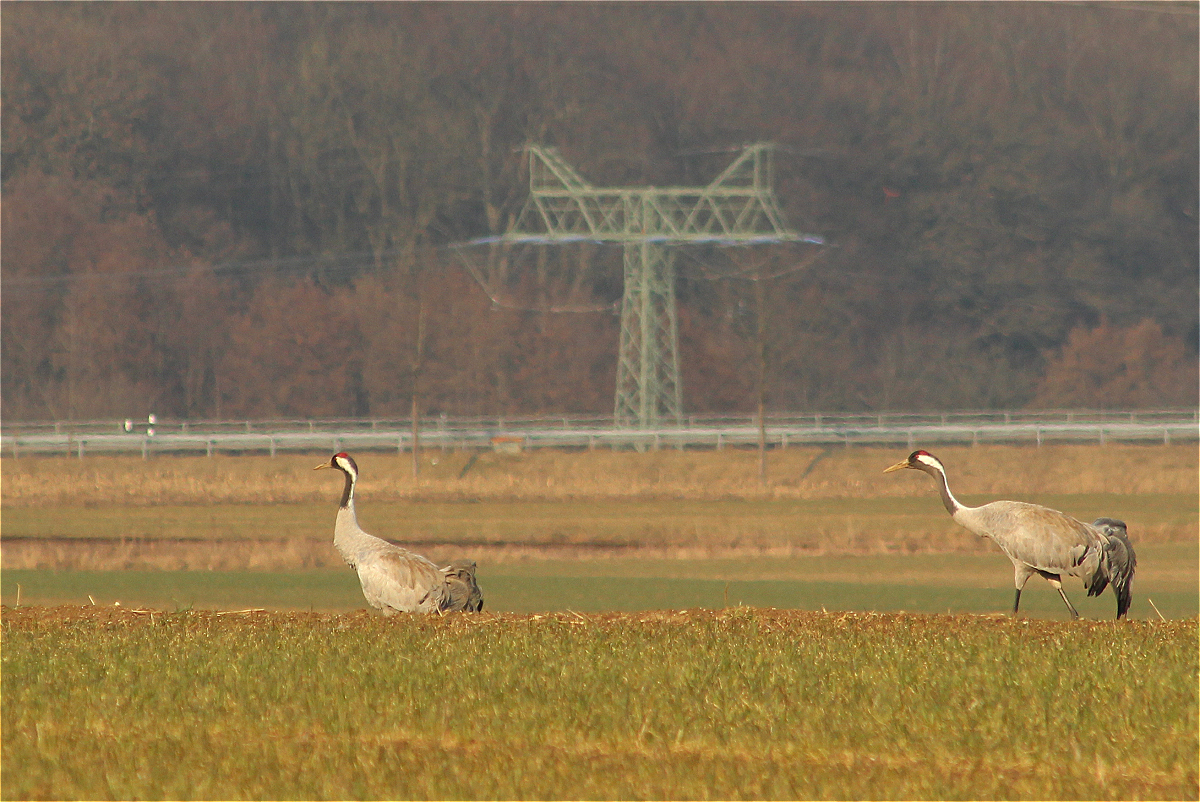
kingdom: Animalia
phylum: Chordata
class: Aves
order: Gruiformes
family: Gruidae
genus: Grus
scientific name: Grus grus
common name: Common crane
